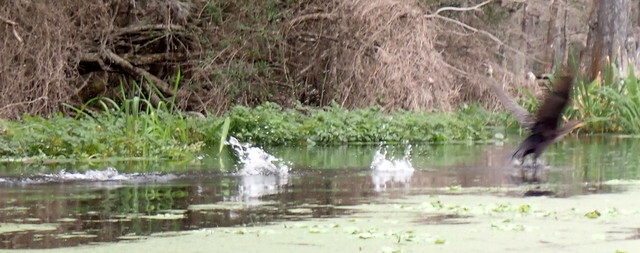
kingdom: Animalia
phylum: Chordata
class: Aves
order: Suliformes
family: Phalacrocoracidae
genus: Phalacrocorax
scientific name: Phalacrocorax auritus
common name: Double-crested cormorant
